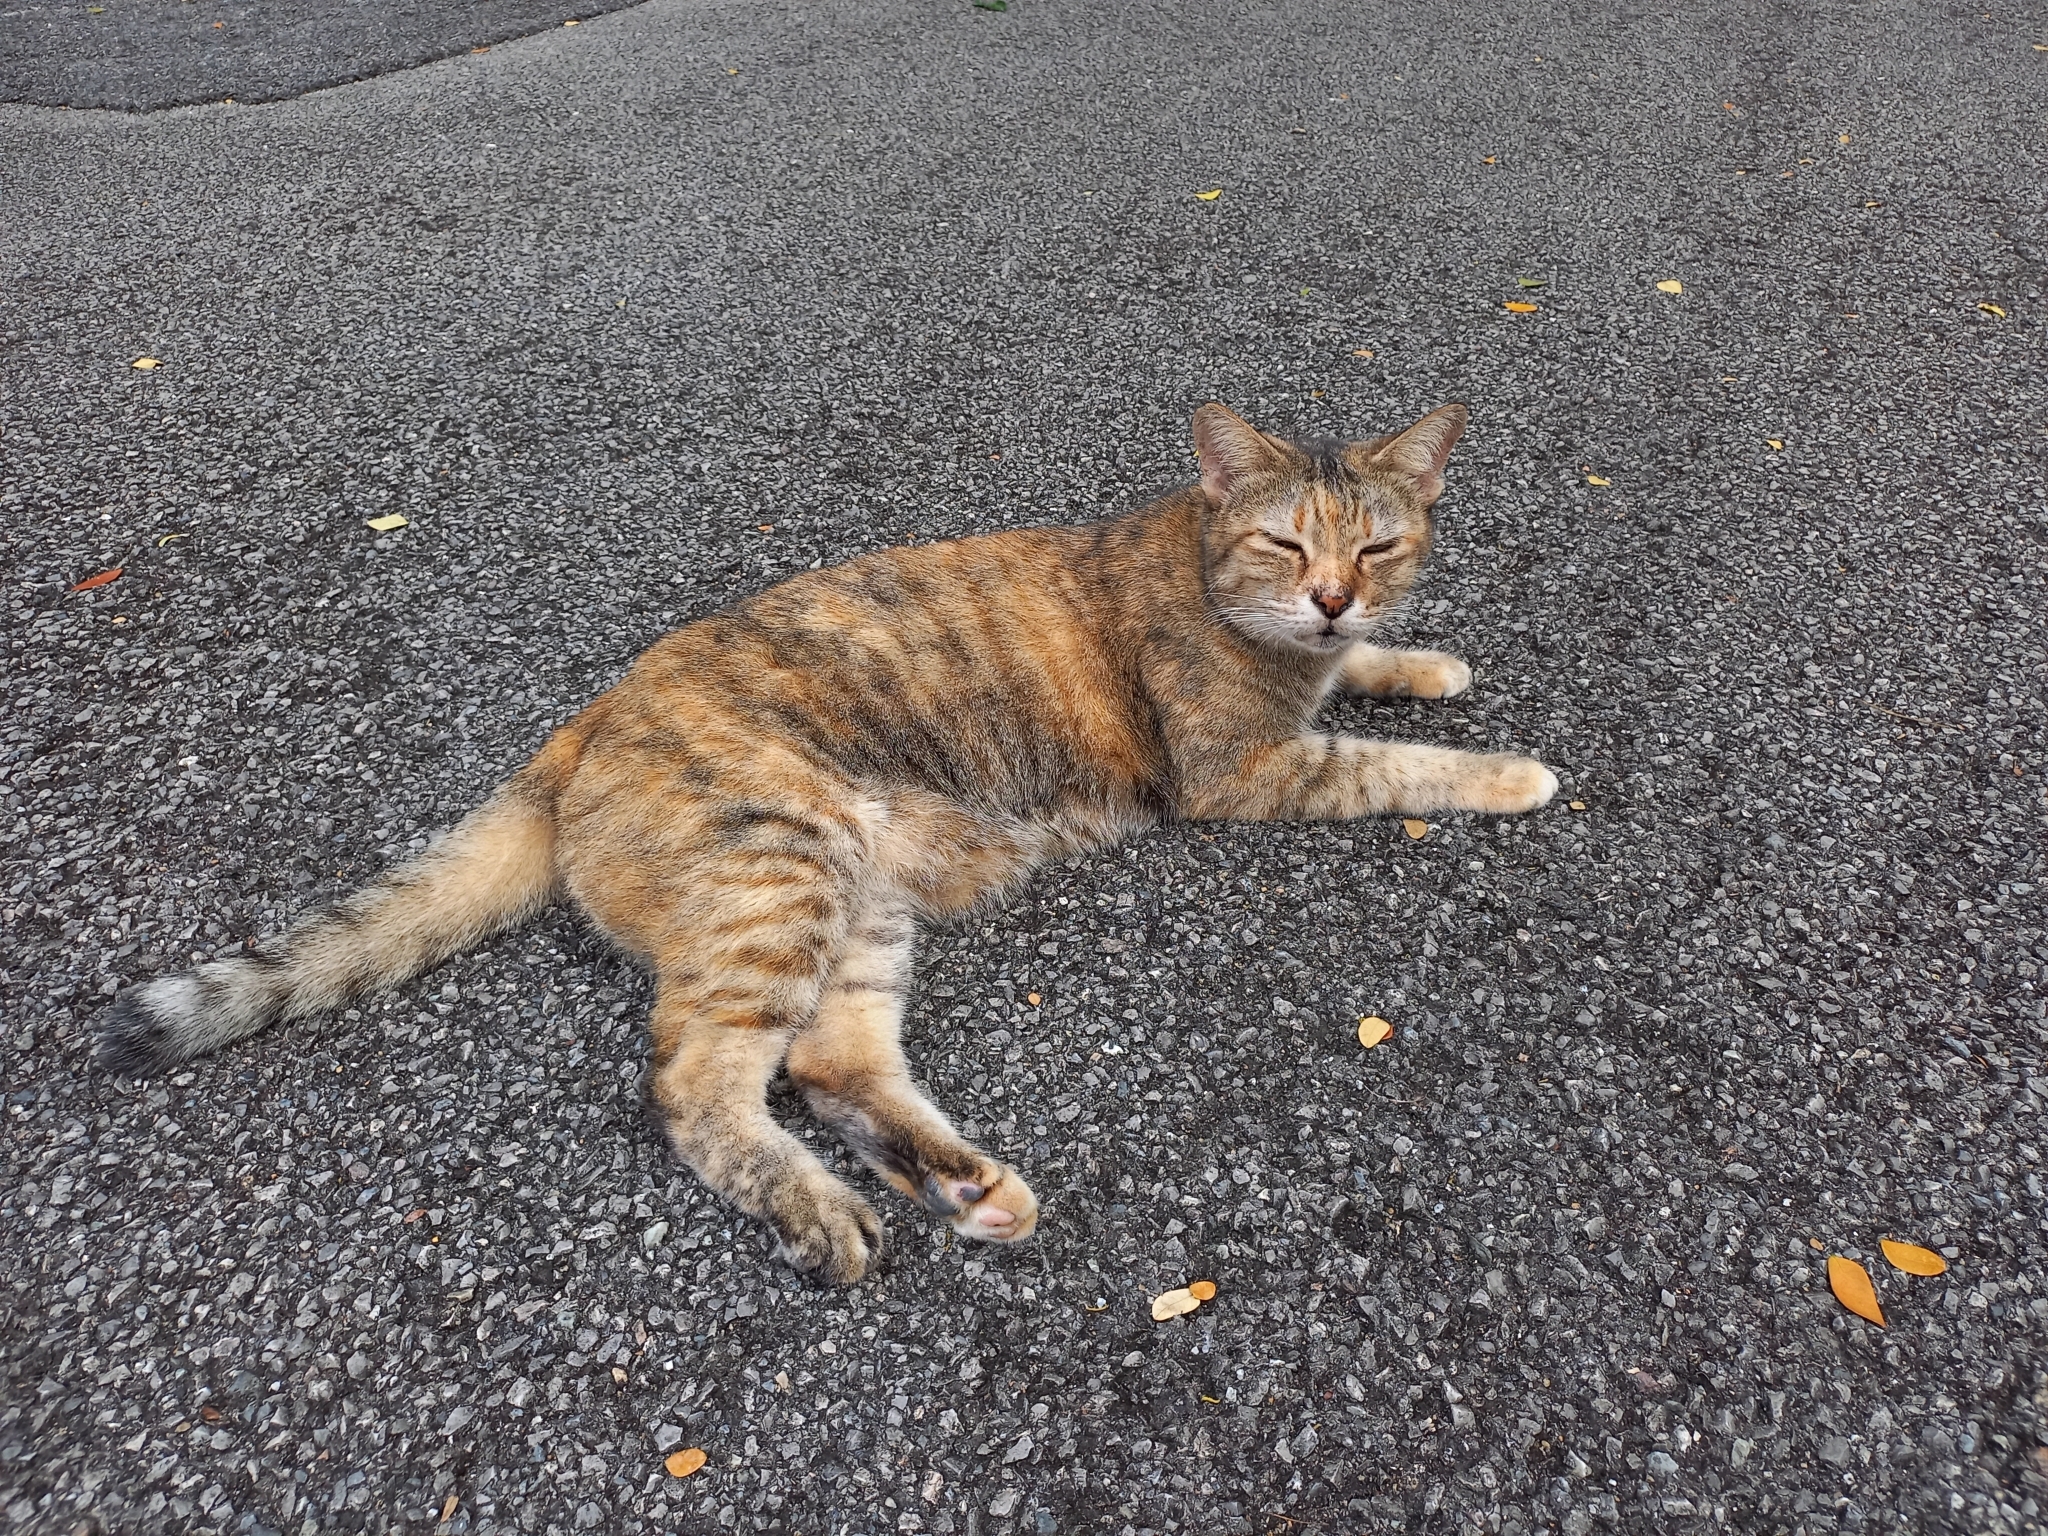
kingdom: Animalia
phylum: Chordata
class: Mammalia
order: Carnivora
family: Felidae
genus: Felis
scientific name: Felis catus
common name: Domestic cat
